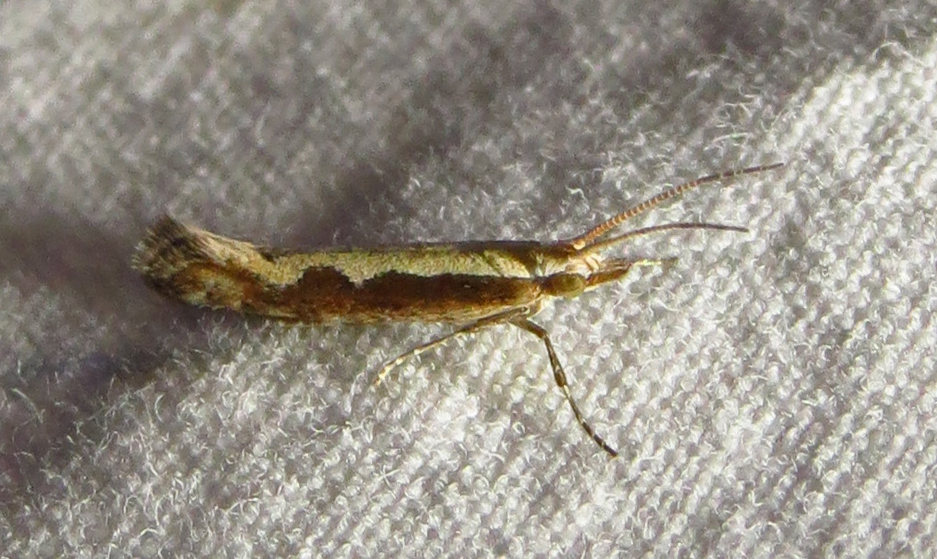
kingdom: Animalia
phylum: Arthropoda
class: Insecta
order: Lepidoptera
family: Plutellidae
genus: Plutella
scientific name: Plutella xylostella
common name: Diamond-back moth
